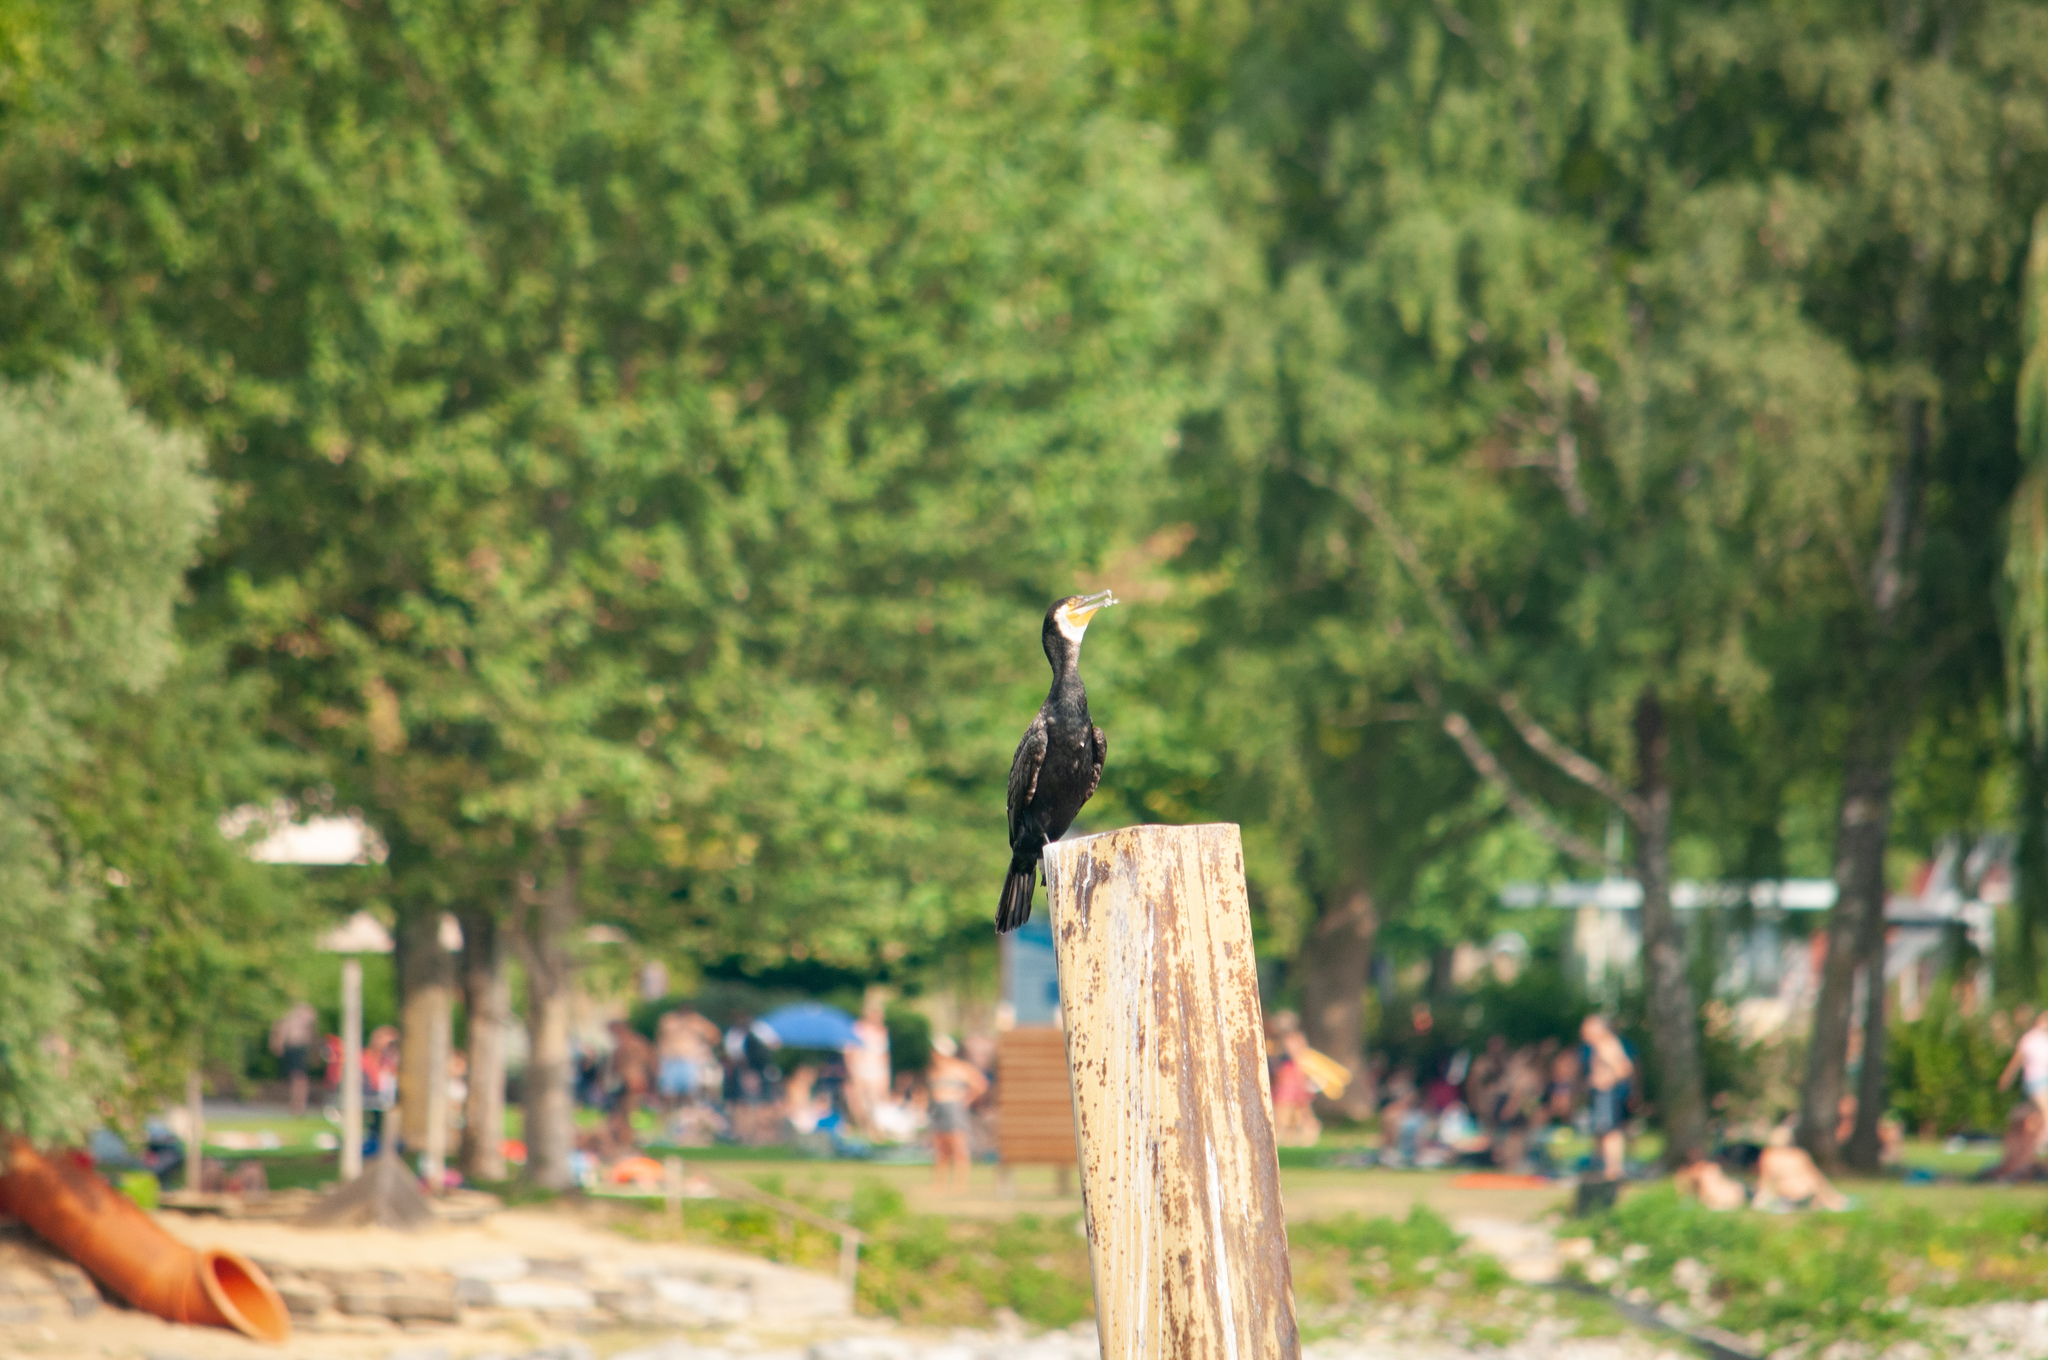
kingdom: Animalia
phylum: Chordata
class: Aves
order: Suliformes
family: Phalacrocoracidae
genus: Phalacrocorax
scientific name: Phalacrocorax carbo
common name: Great cormorant
